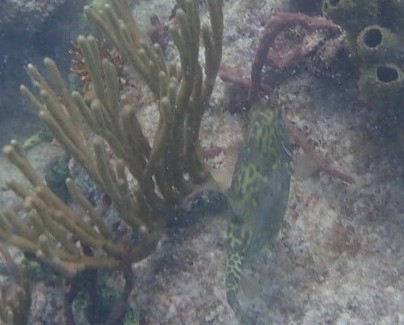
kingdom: Animalia
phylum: Chordata
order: Tetraodontiformes
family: Ostraciidae
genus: Acanthostracion
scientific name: Acanthostracion quadricornis
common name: Scrawled cowfish
